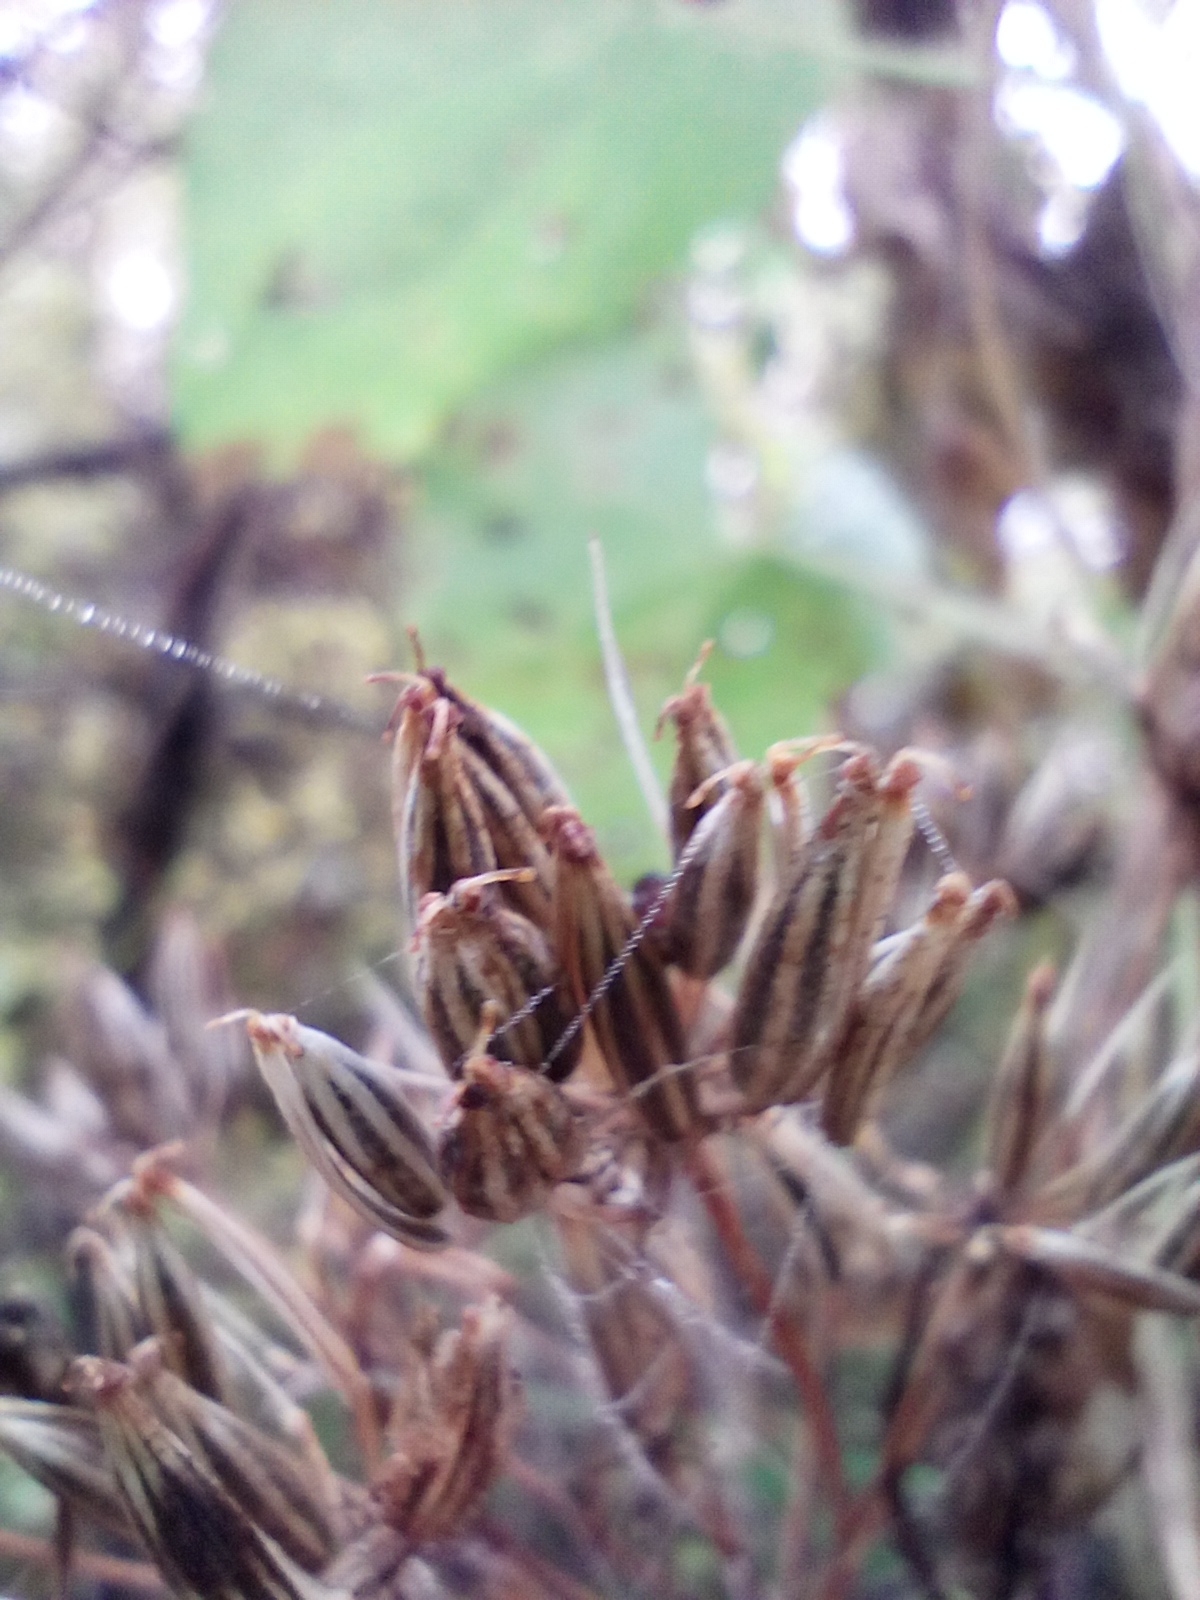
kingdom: Plantae
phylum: Tracheophyta
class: Magnoliopsida
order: Apiales
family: Apiaceae
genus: Chaerophyllum
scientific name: Chaerophyllum aureum
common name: Golden chervil
